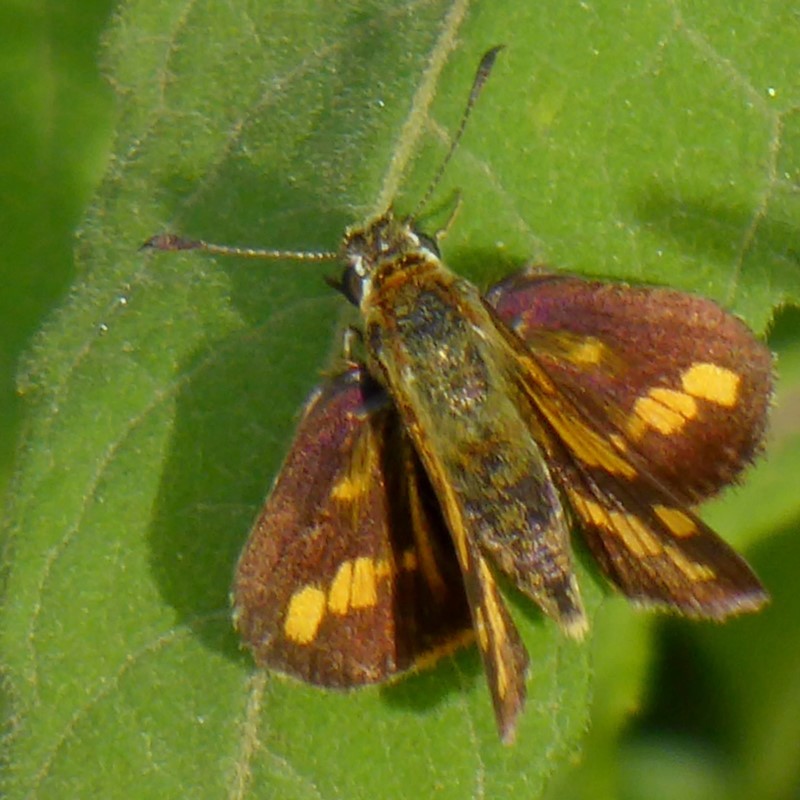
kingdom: Animalia
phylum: Arthropoda
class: Insecta
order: Lepidoptera
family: Hesperiidae
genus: Ocybadistes
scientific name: Ocybadistes flavovittata
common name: Narrow-brand grass-dart
